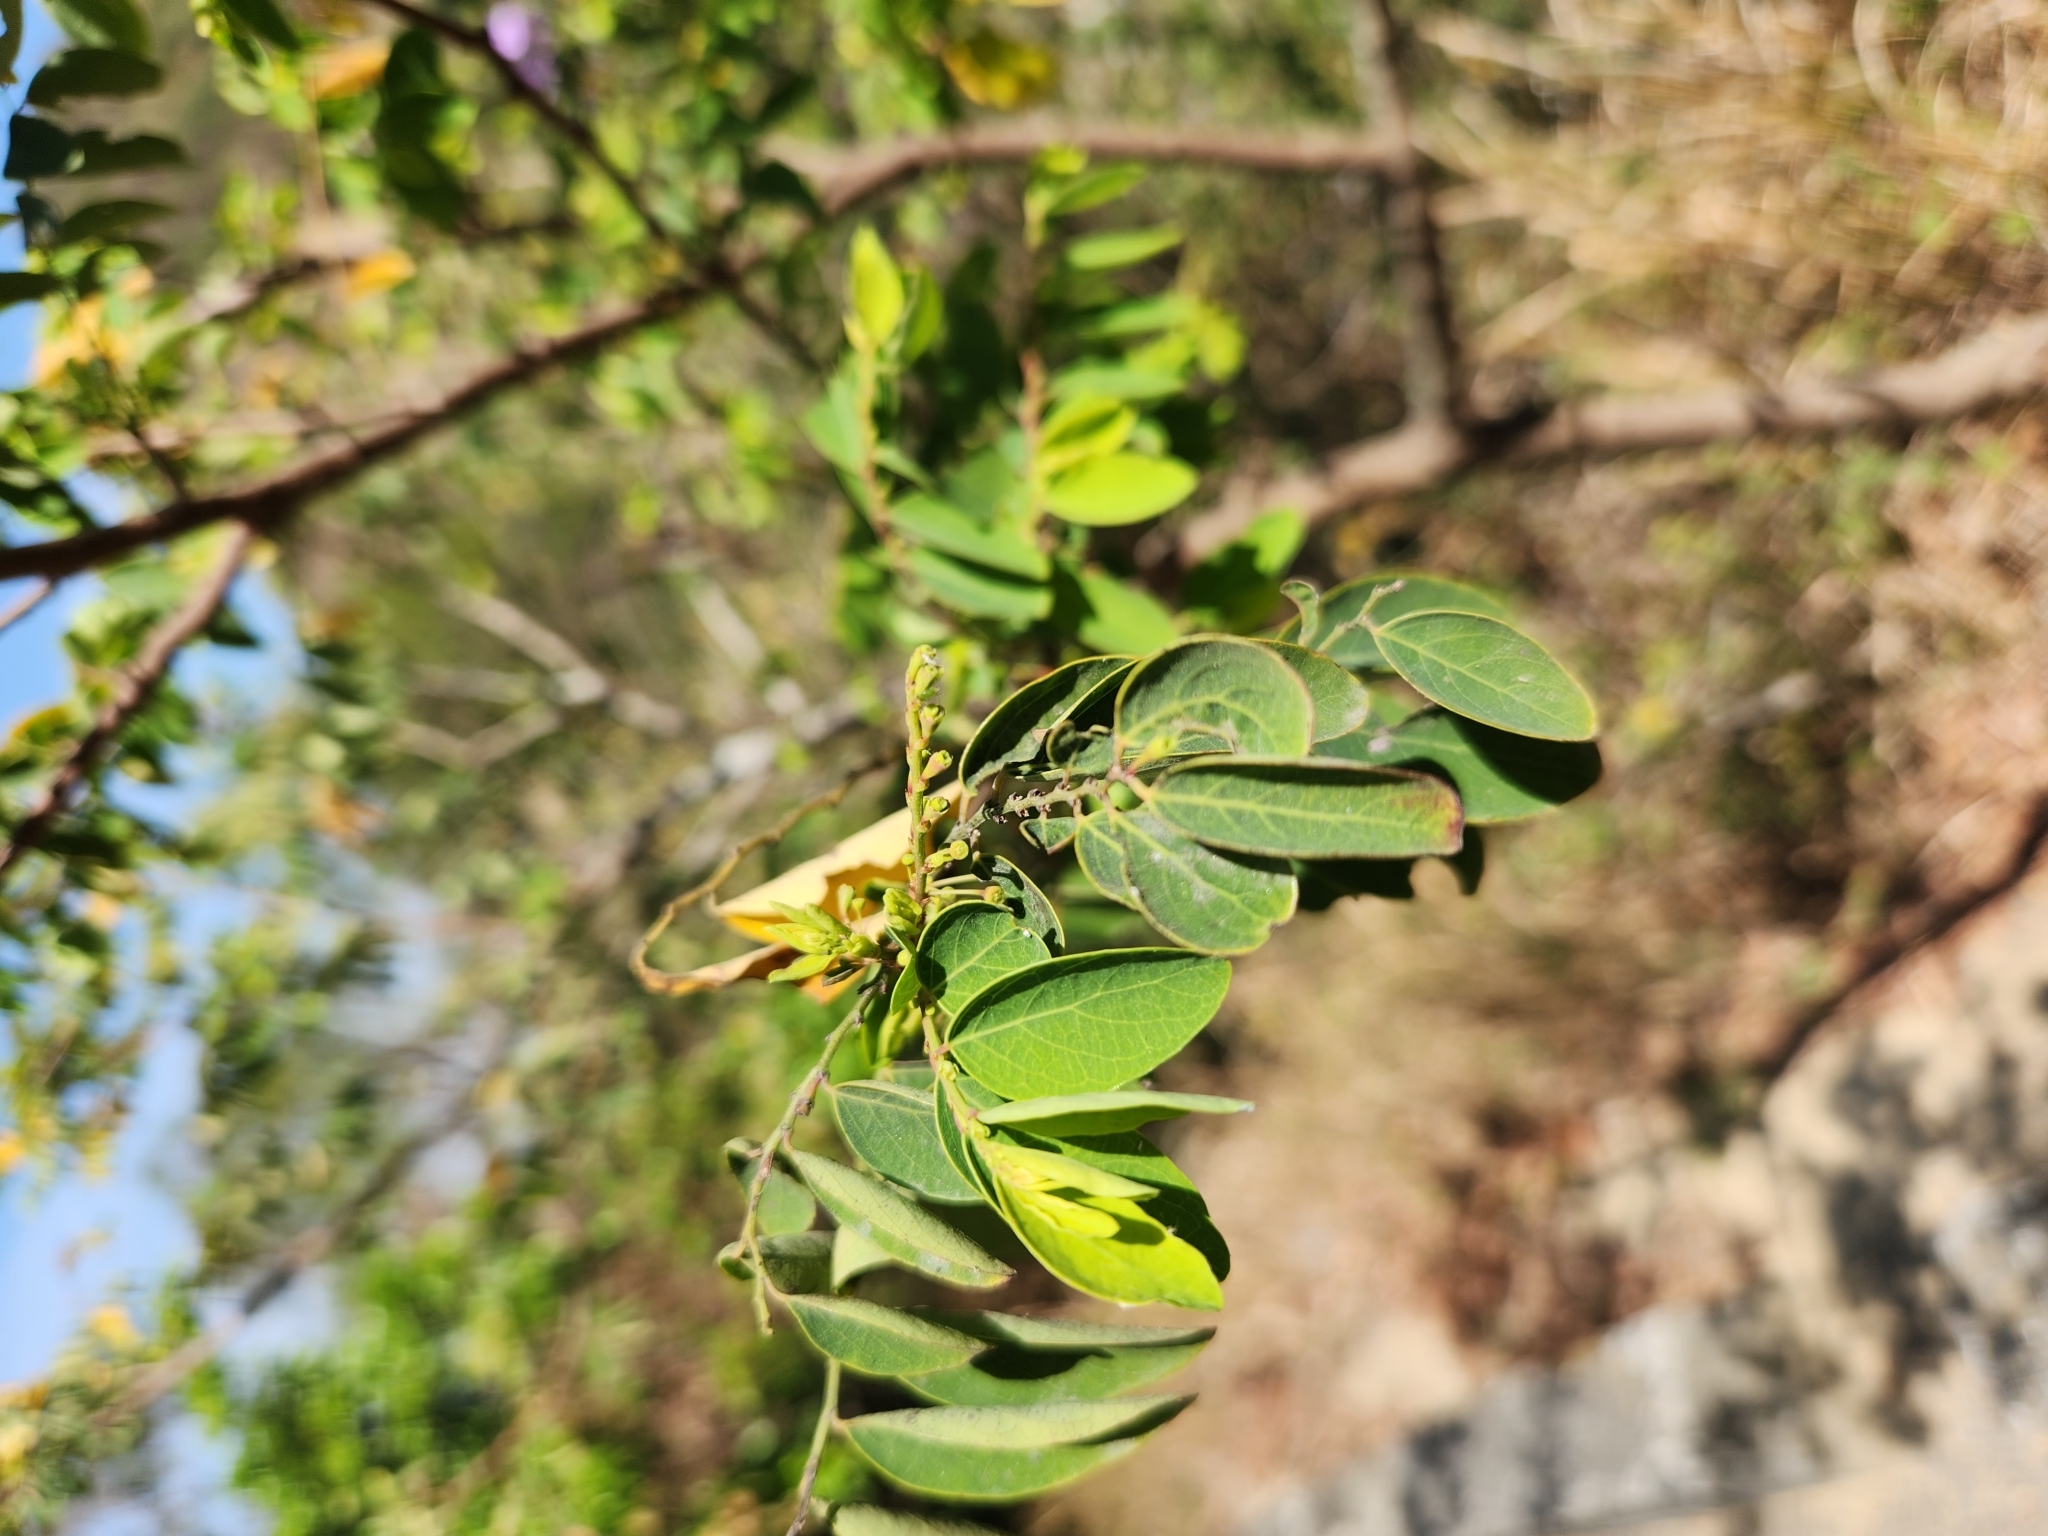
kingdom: Plantae
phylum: Tracheophyta
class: Magnoliopsida
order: Malpighiales
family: Phyllanthaceae
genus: Breynia
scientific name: Breynia vitis-idaea
